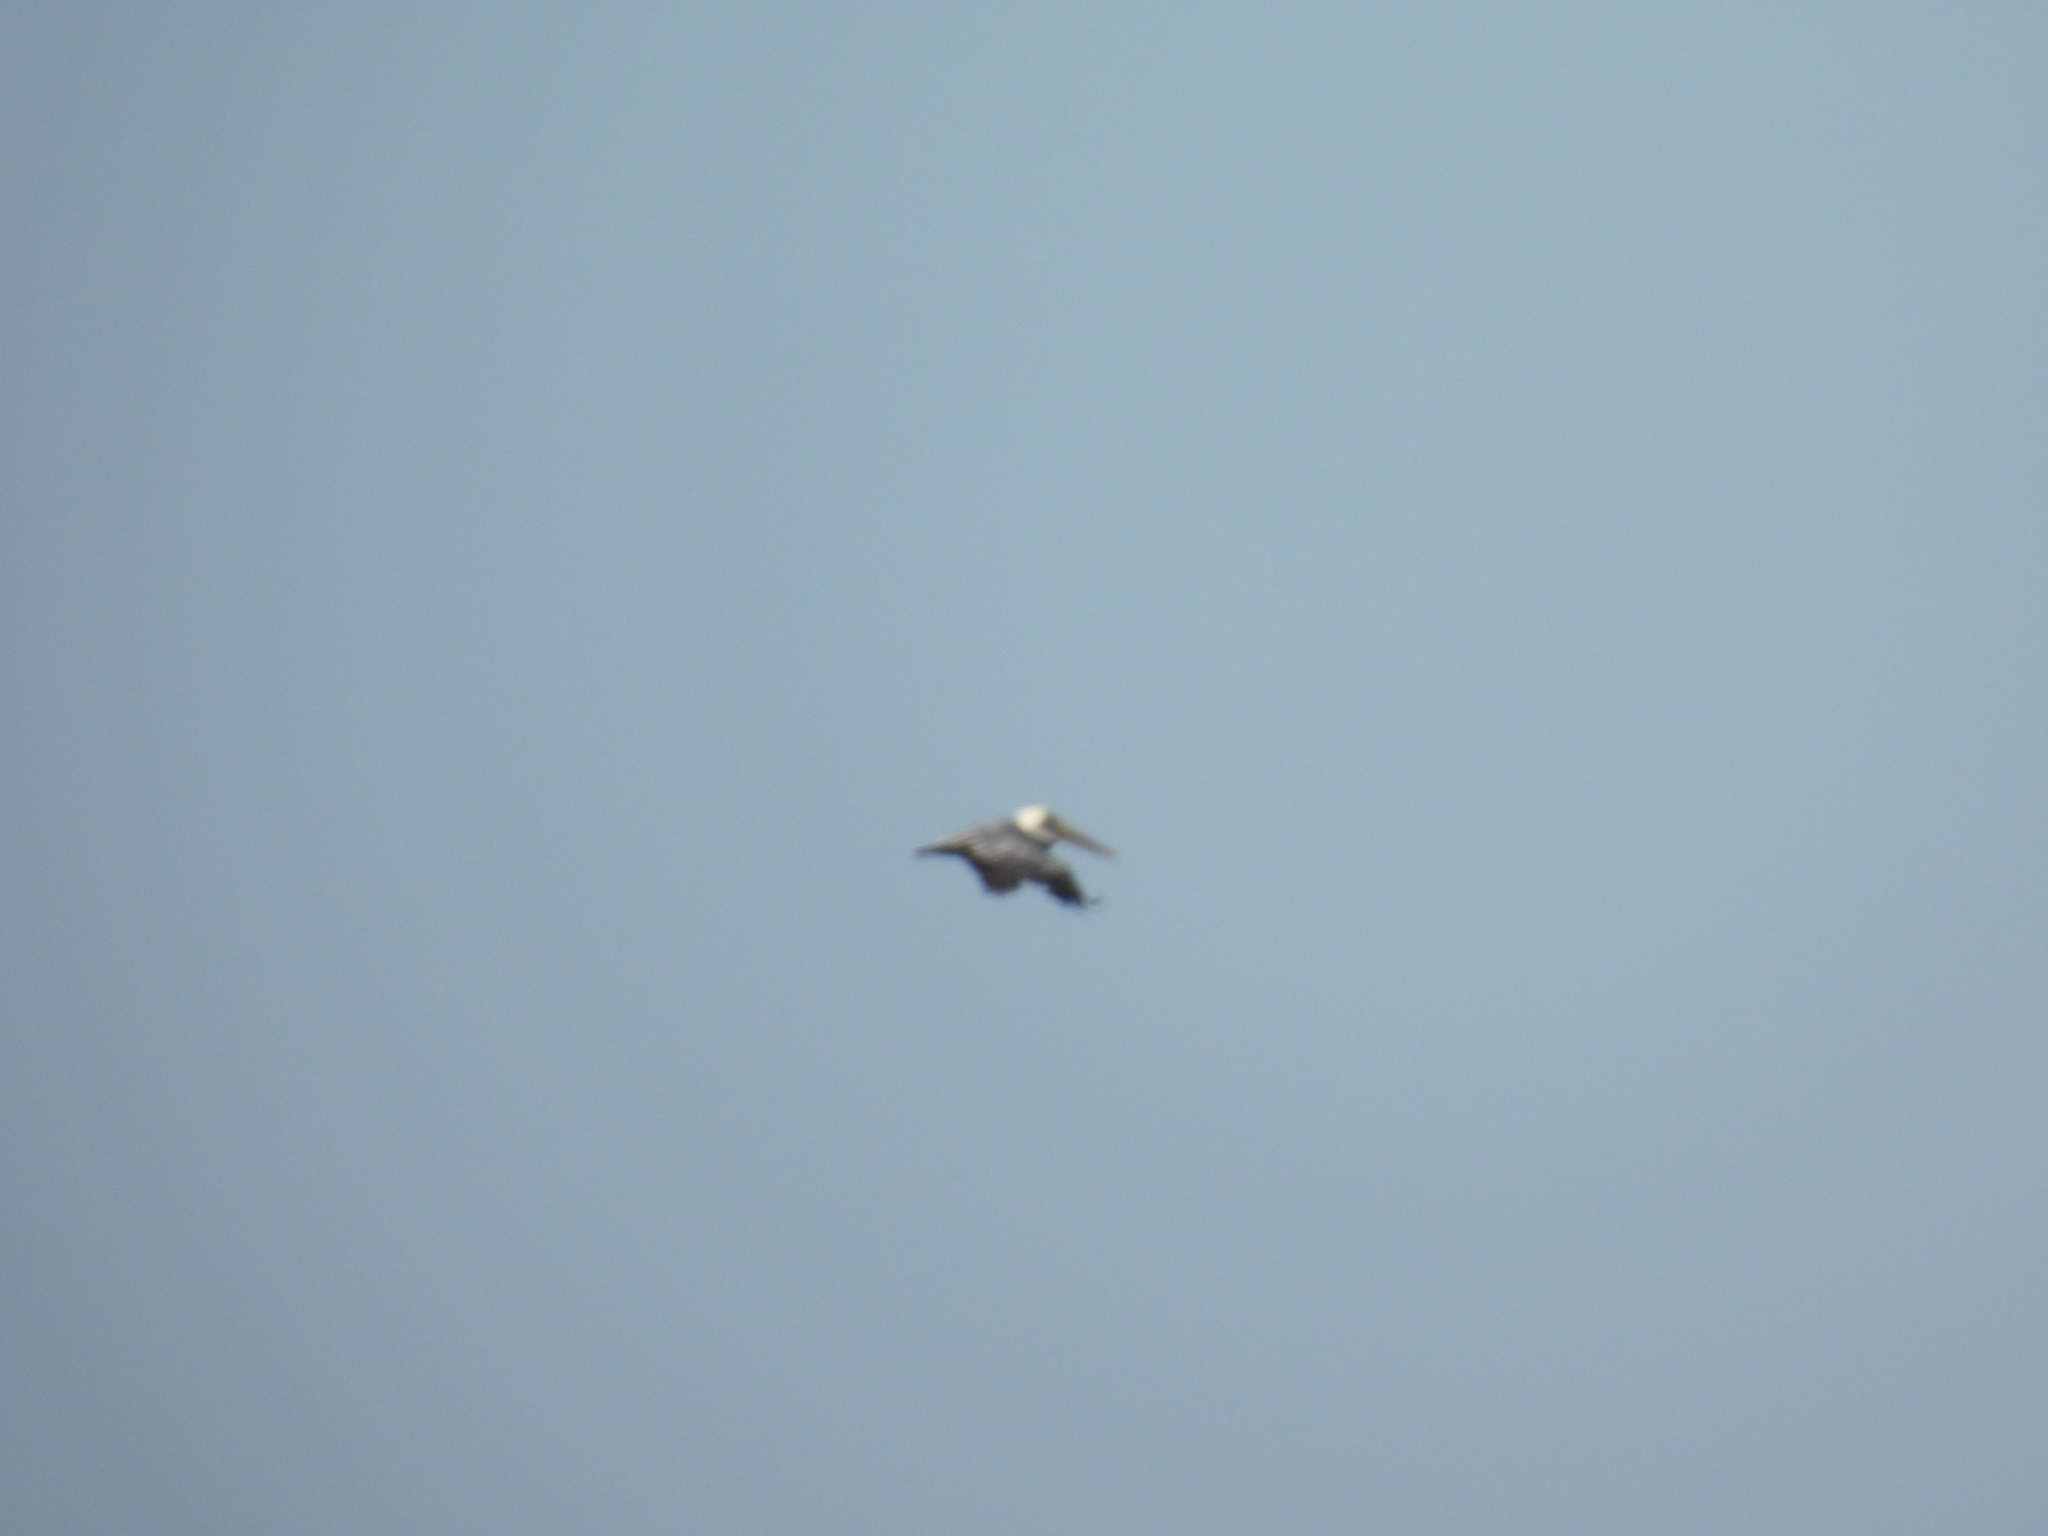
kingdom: Animalia
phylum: Chordata
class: Aves
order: Pelecaniformes
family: Pelecanidae
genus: Pelecanus
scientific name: Pelecanus occidentalis
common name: Brown pelican
